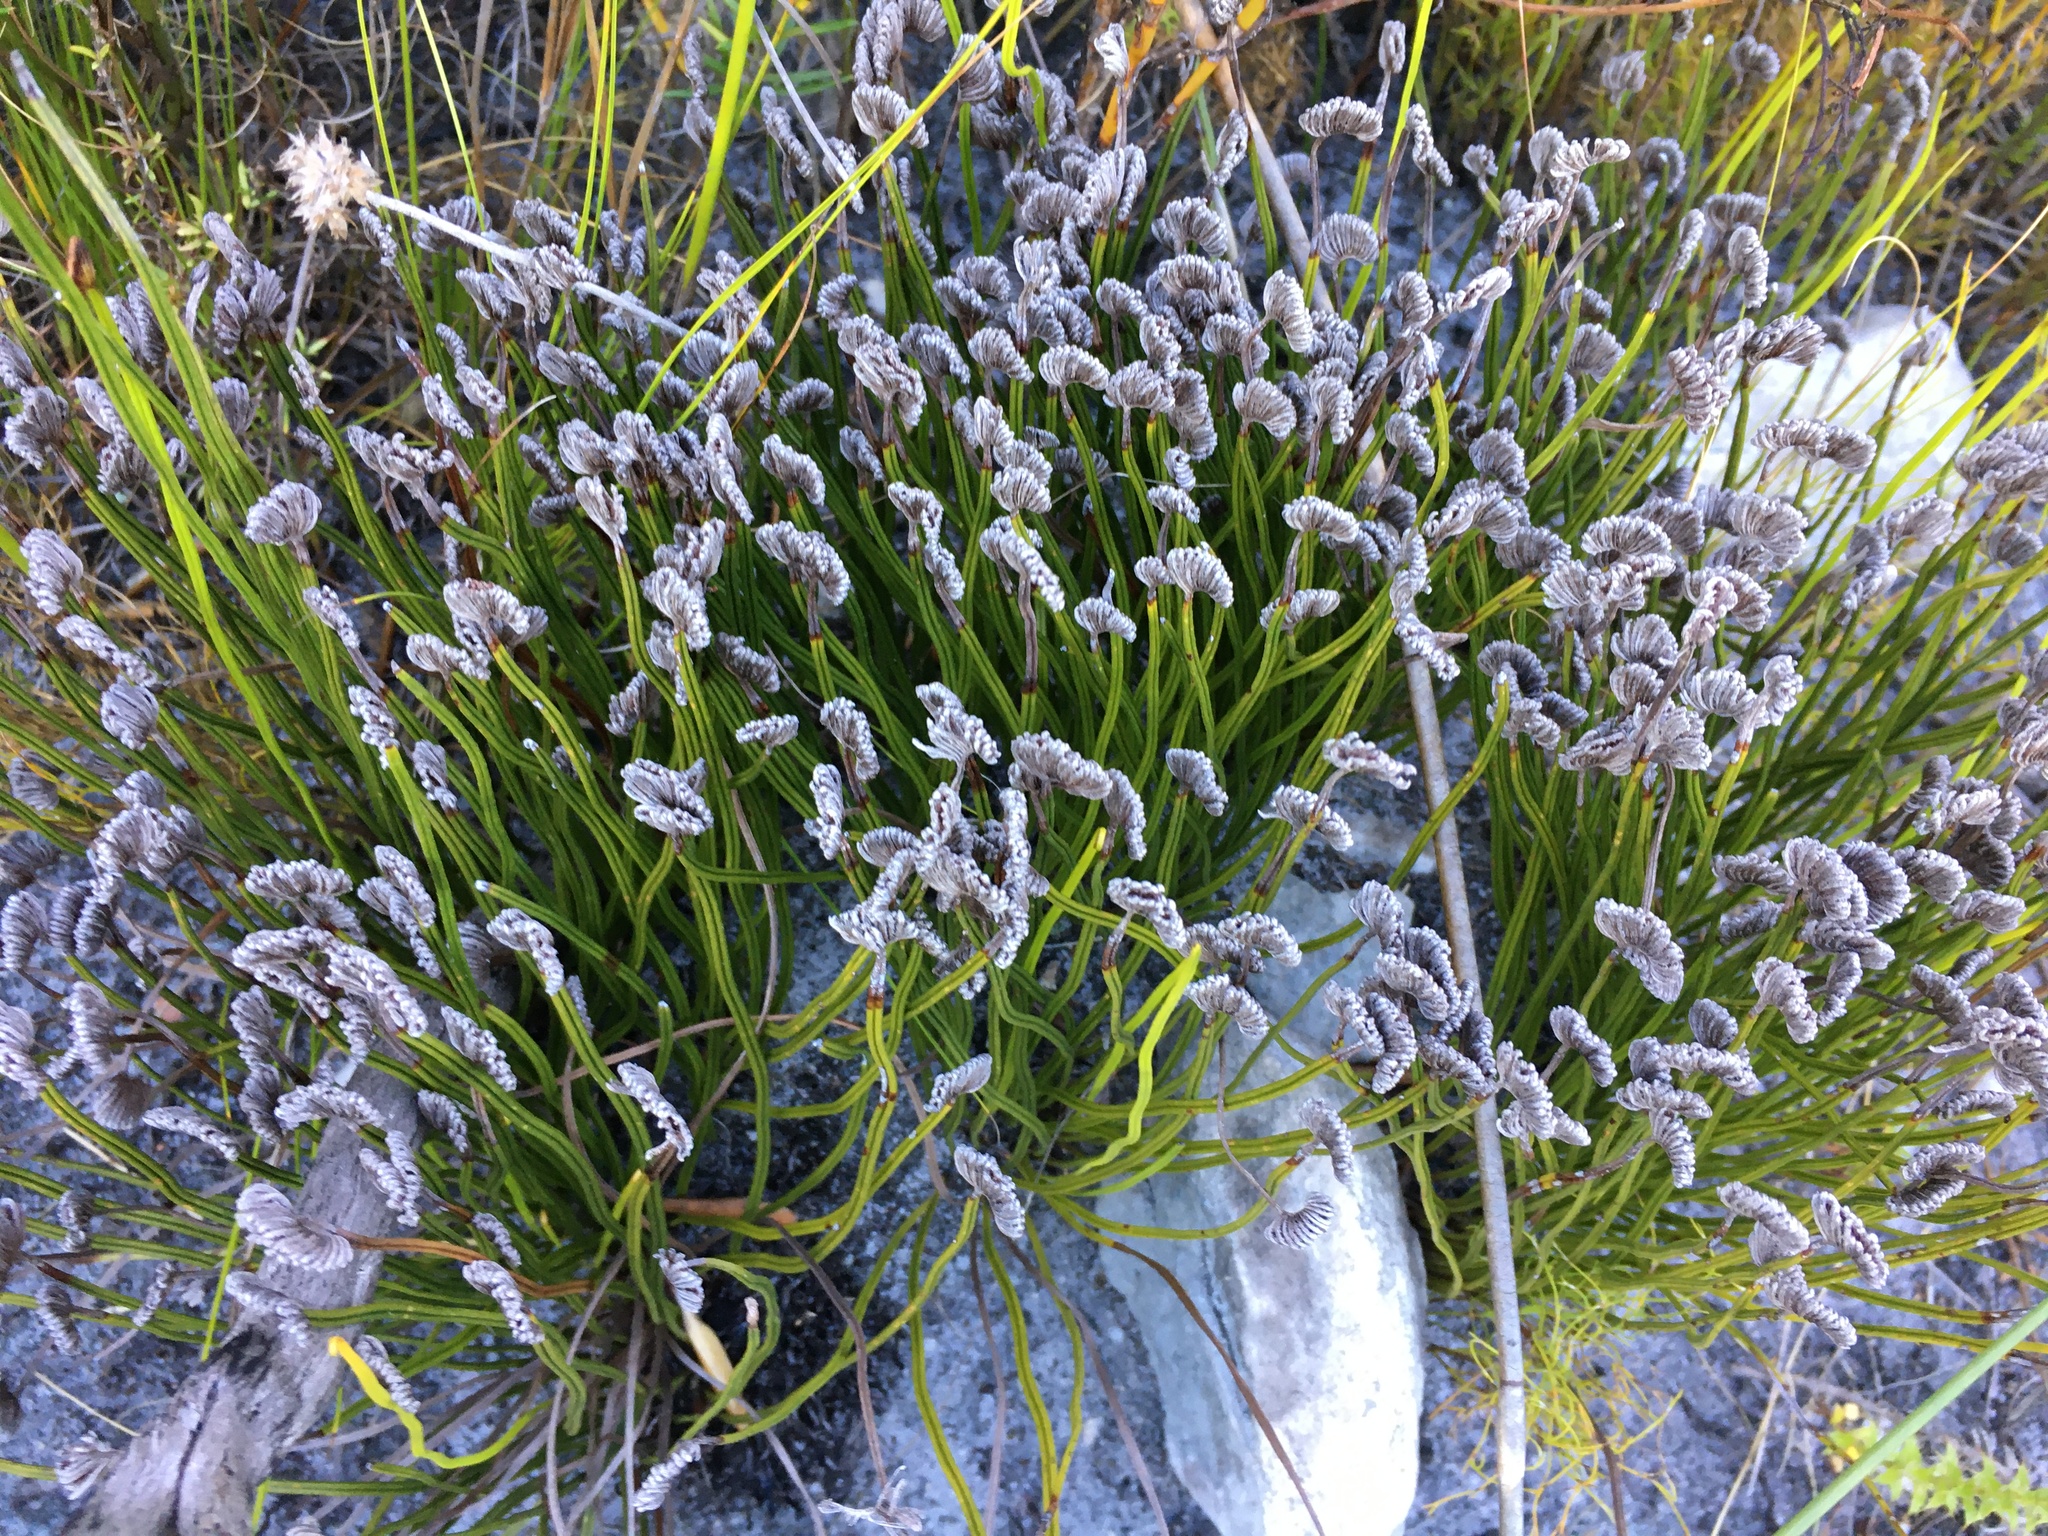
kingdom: Plantae
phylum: Tracheophyta
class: Polypodiopsida
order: Schizaeales
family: Schizaeaceae
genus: Schizaea
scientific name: Schizaea pectinata
